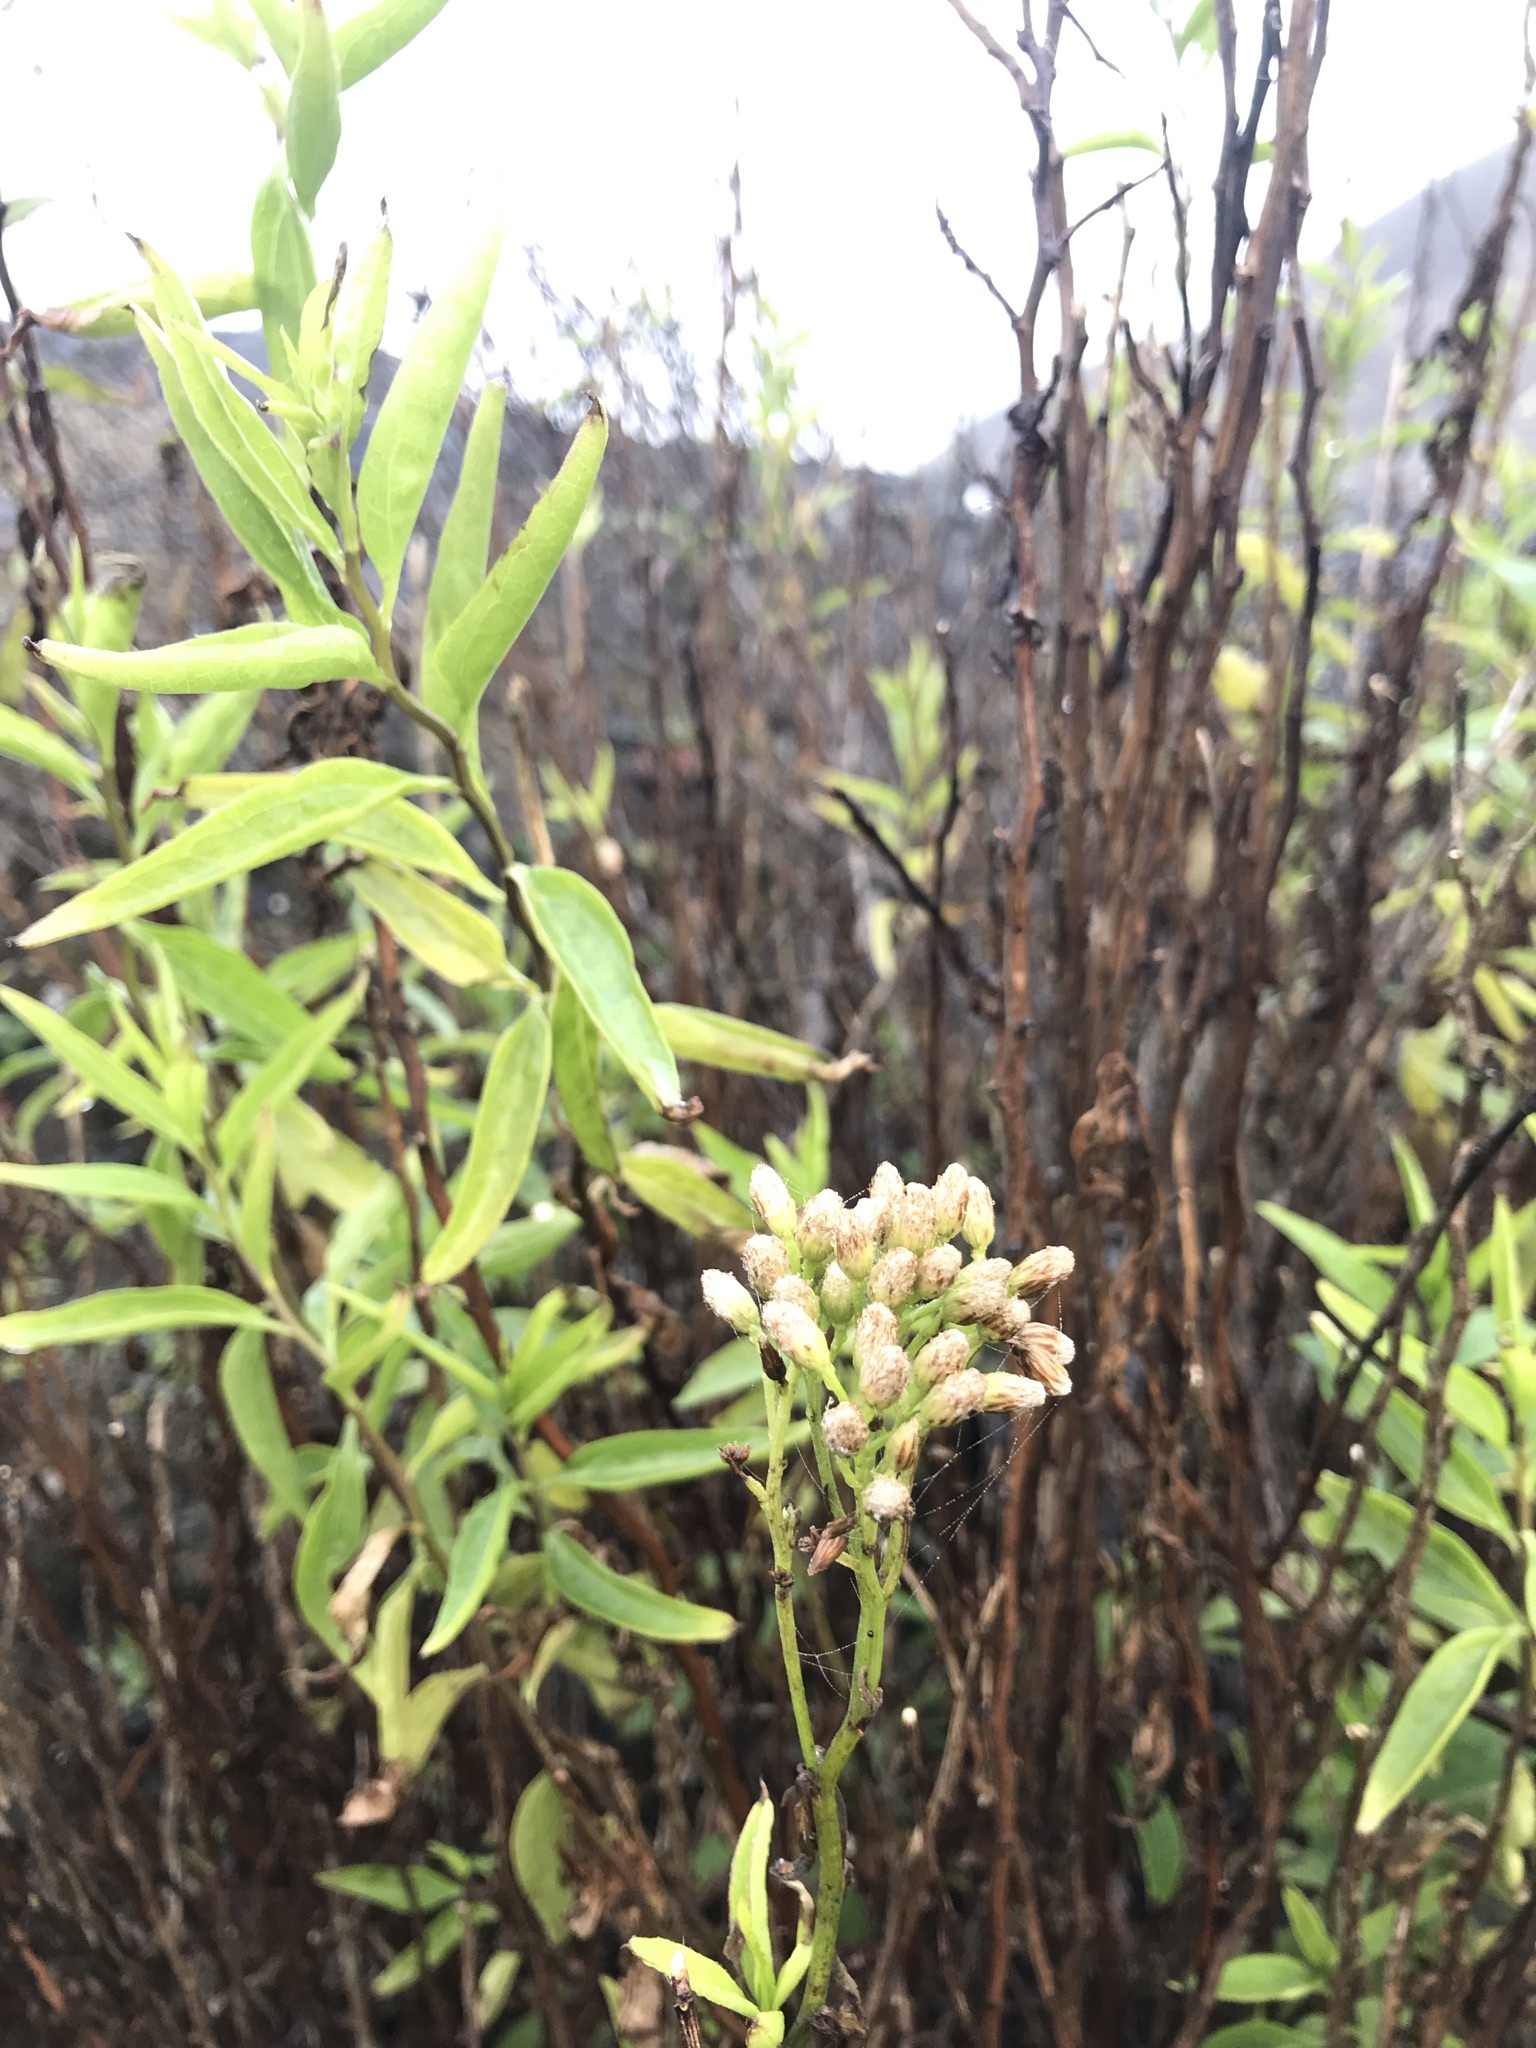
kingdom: Plantae
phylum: Tracheophyta
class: Magnoliopsida
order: Asterales
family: Asteraceae
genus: Baccharis
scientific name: Baccharis glutinosa
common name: Saltmarsh baccharis
